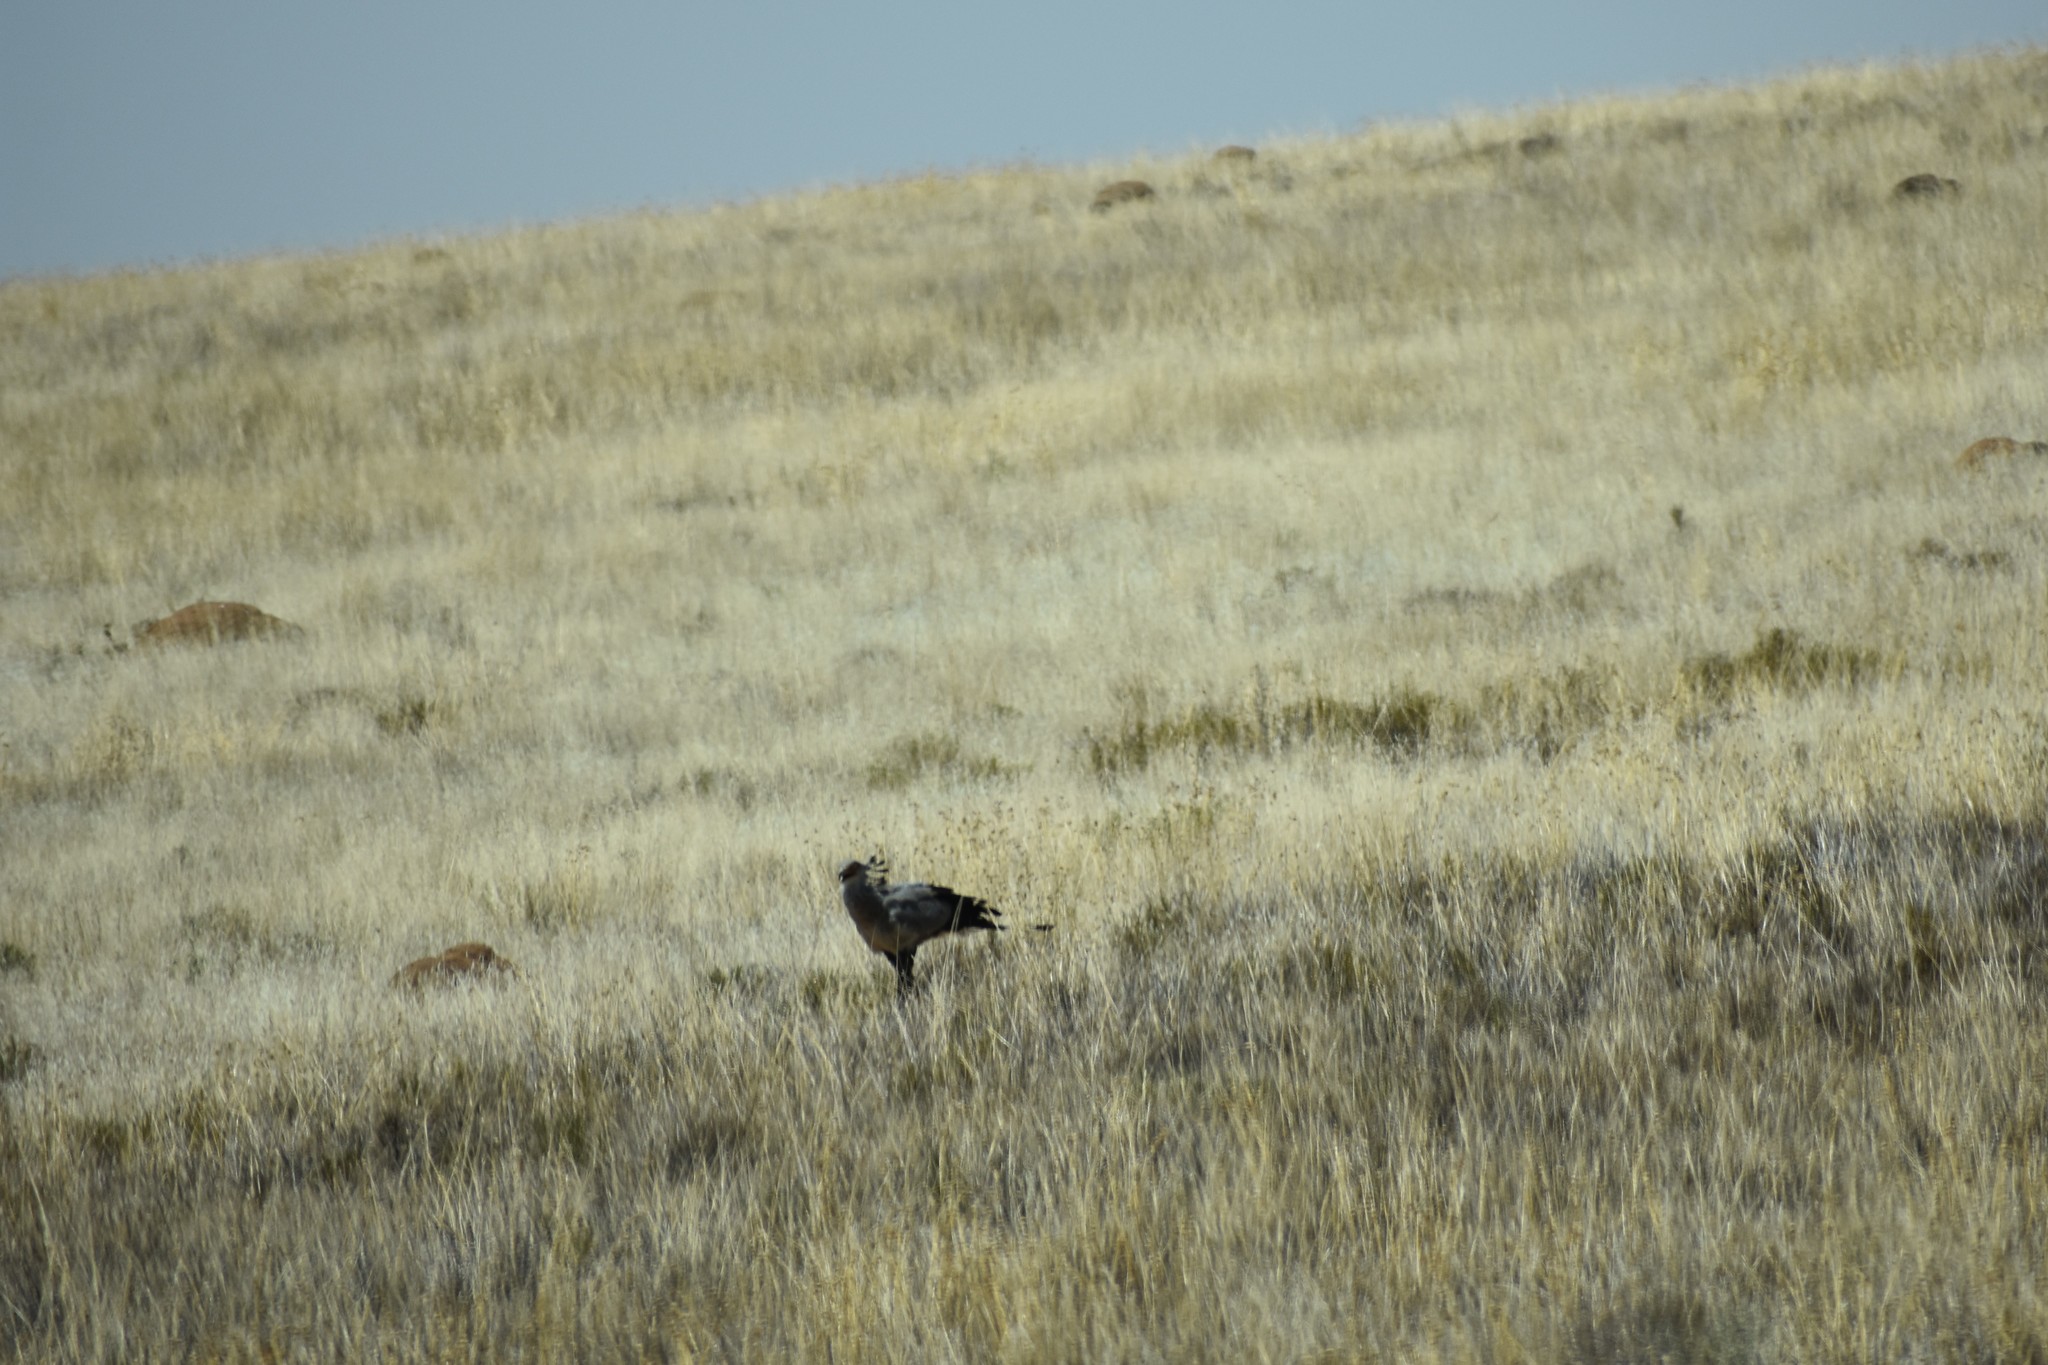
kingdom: Animalia
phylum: Chordata
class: Aves
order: Accipitriformes
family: Sagittariidae
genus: Sagittarius
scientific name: Sagittarius serpentarius
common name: Secretarybird
